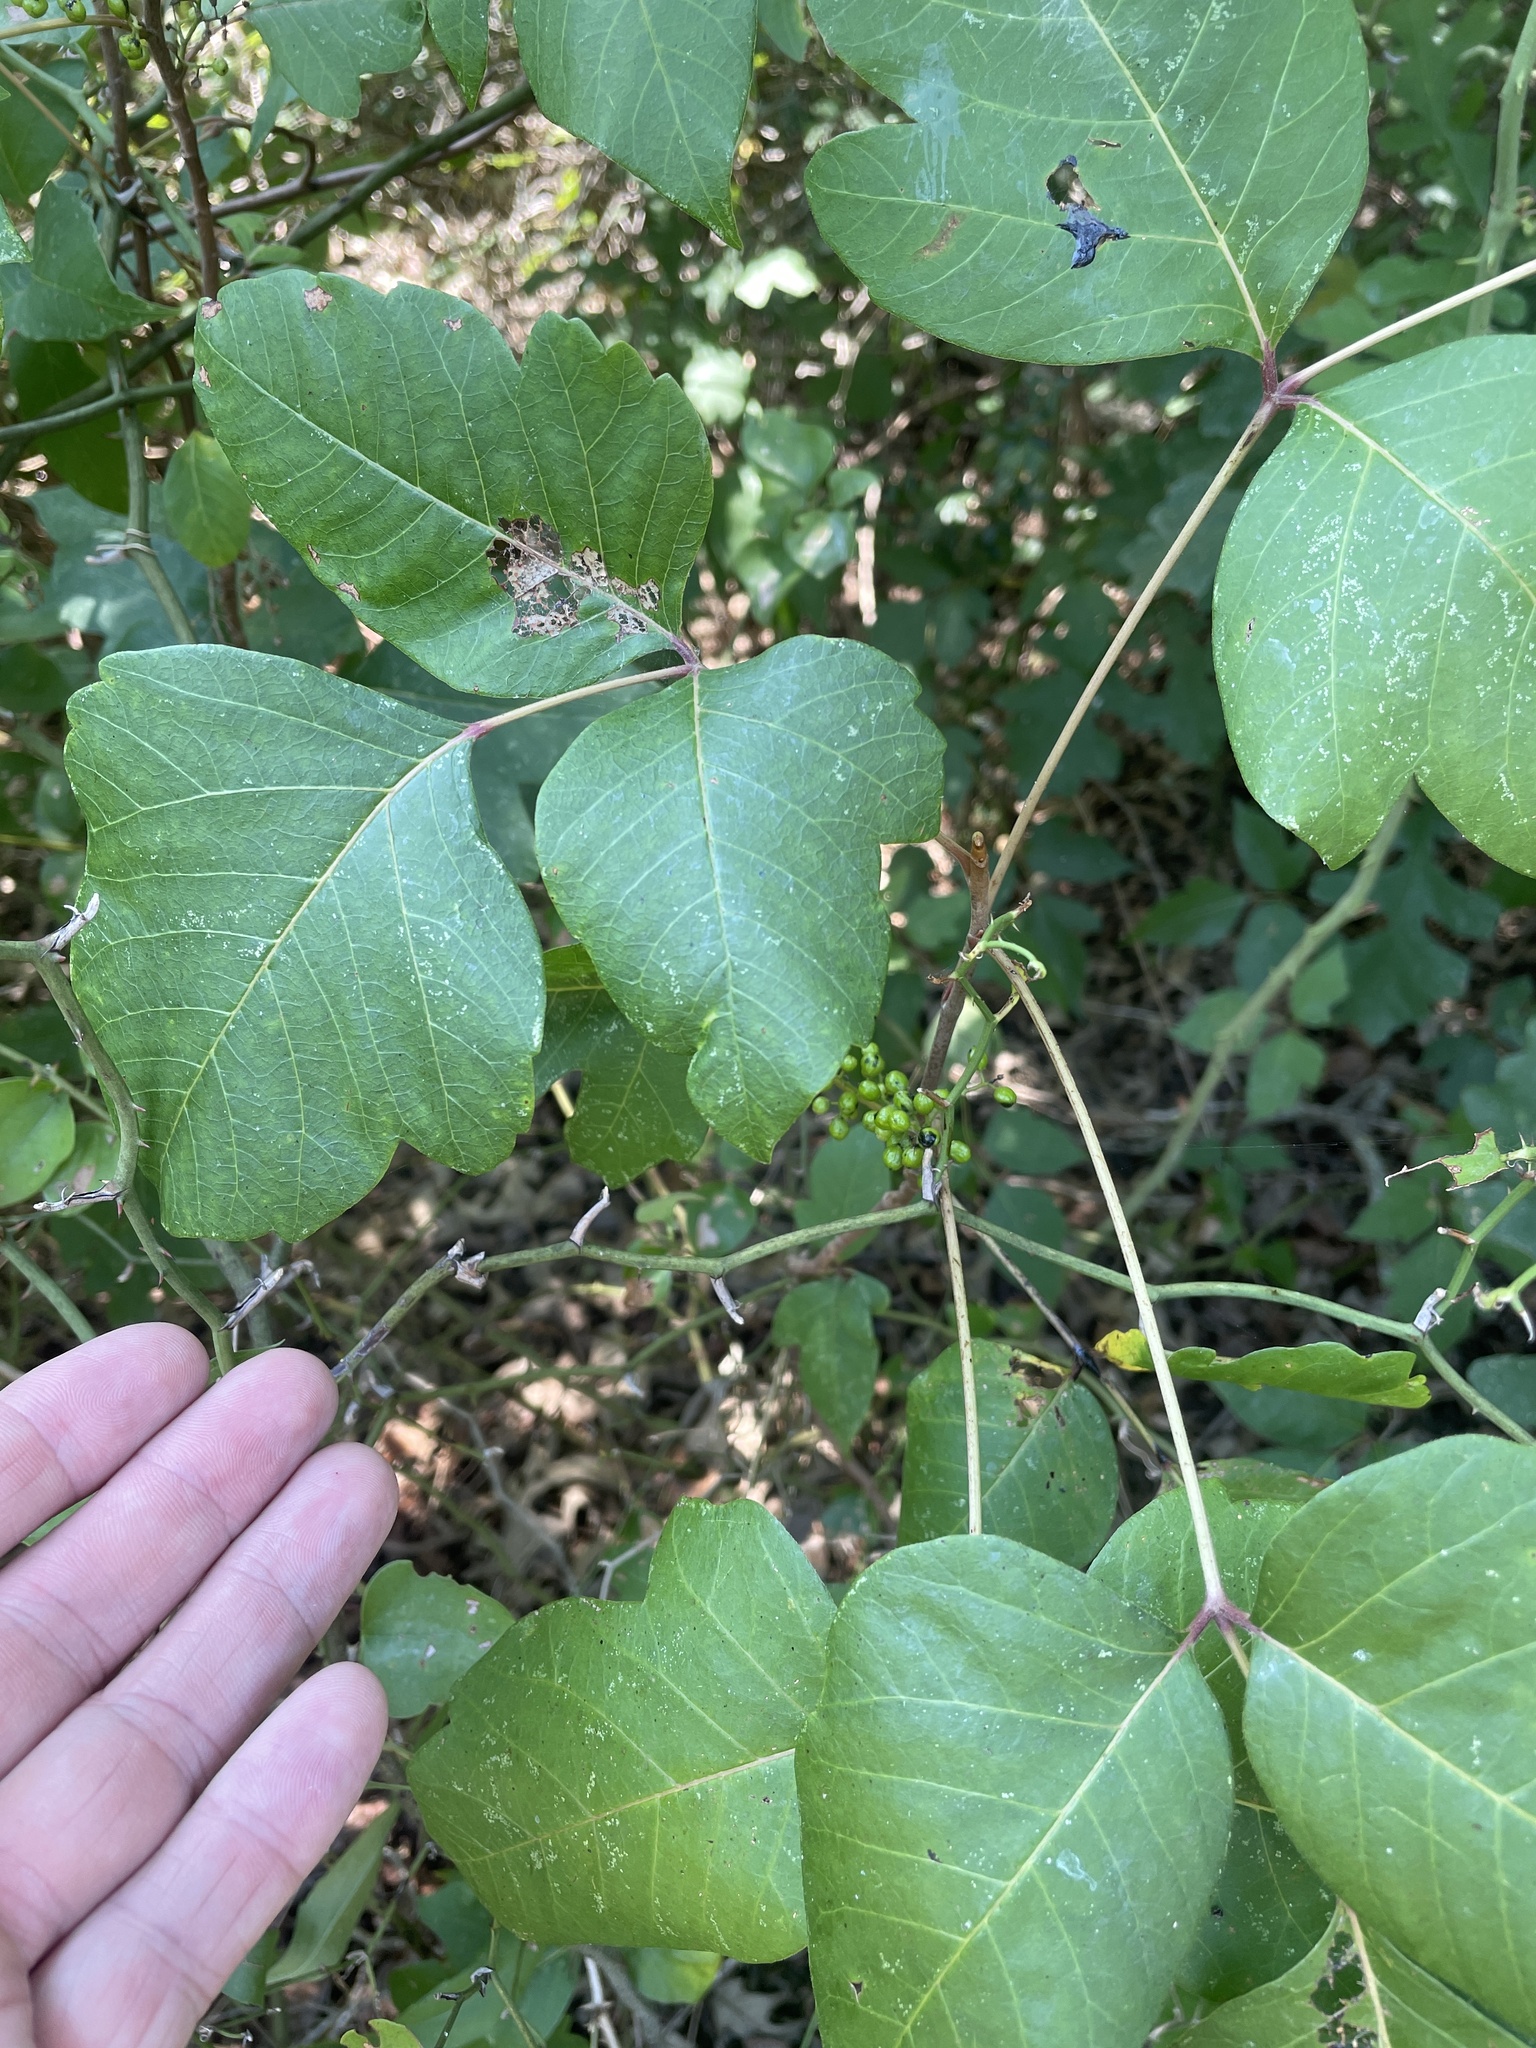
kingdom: Plantae
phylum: Tracheophyta
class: Magnoliopsida
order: Sapindales
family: Anacardiaceae
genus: Toxicodendron
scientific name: Toxicodendron radicans
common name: Poison ivy
